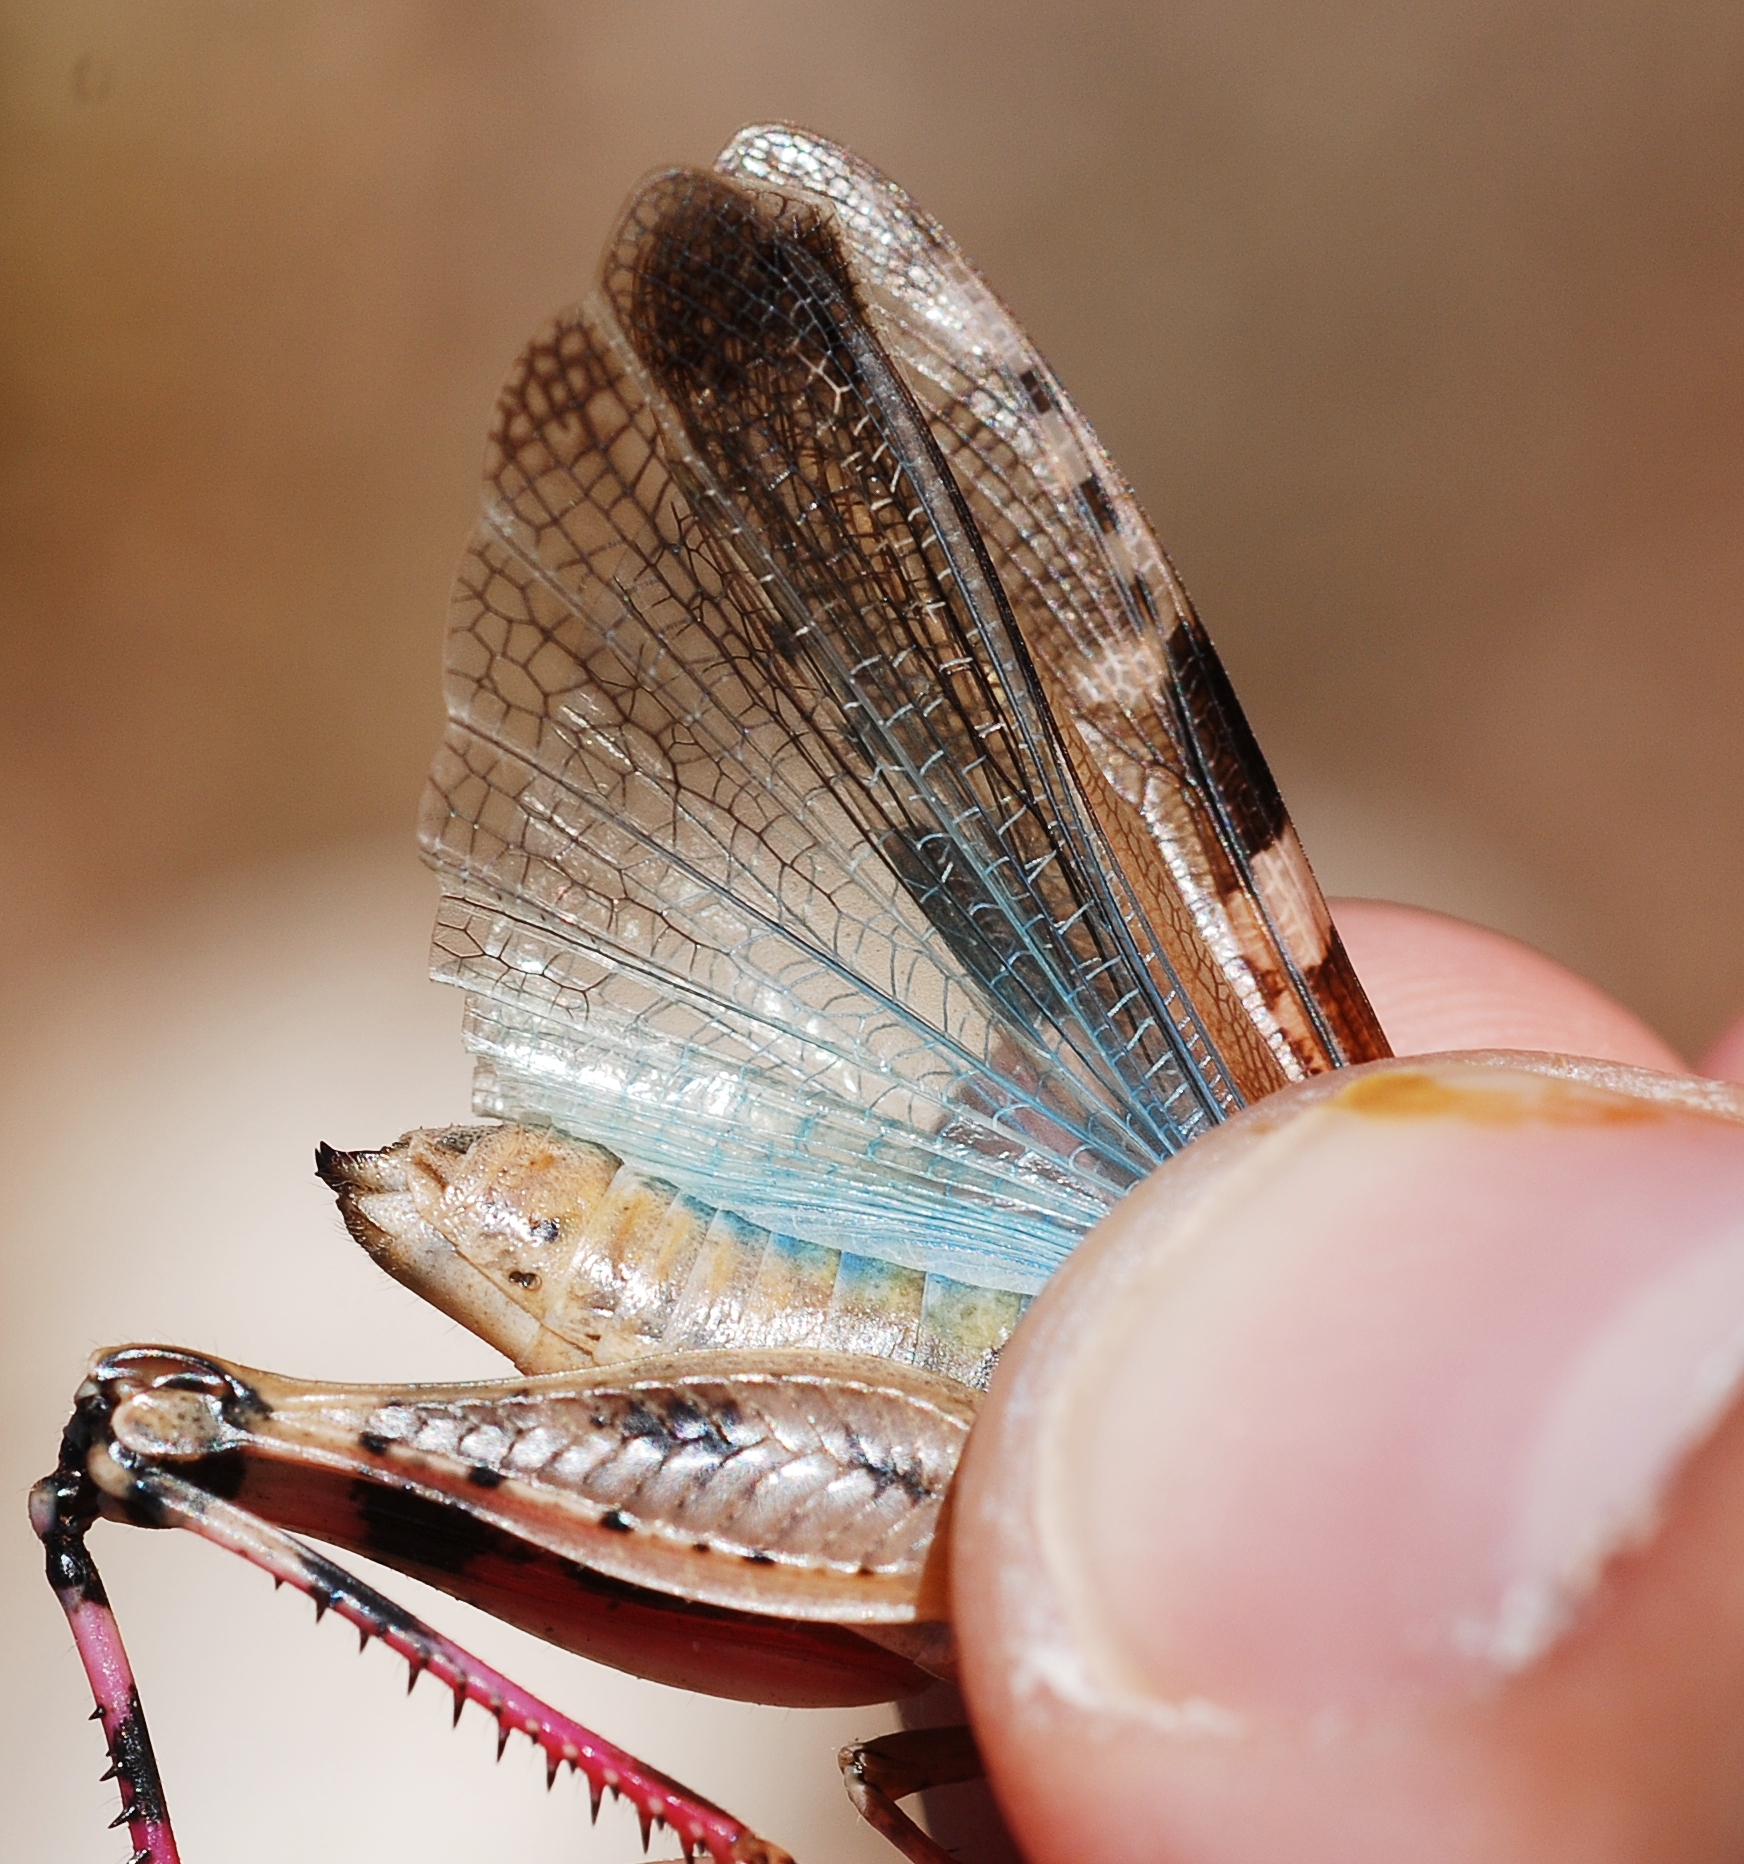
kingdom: Animalia
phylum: Arthropoda
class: Insecta
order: Orthoptera
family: Acrididae
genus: Aiolopus
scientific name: Aiolopus strepens
